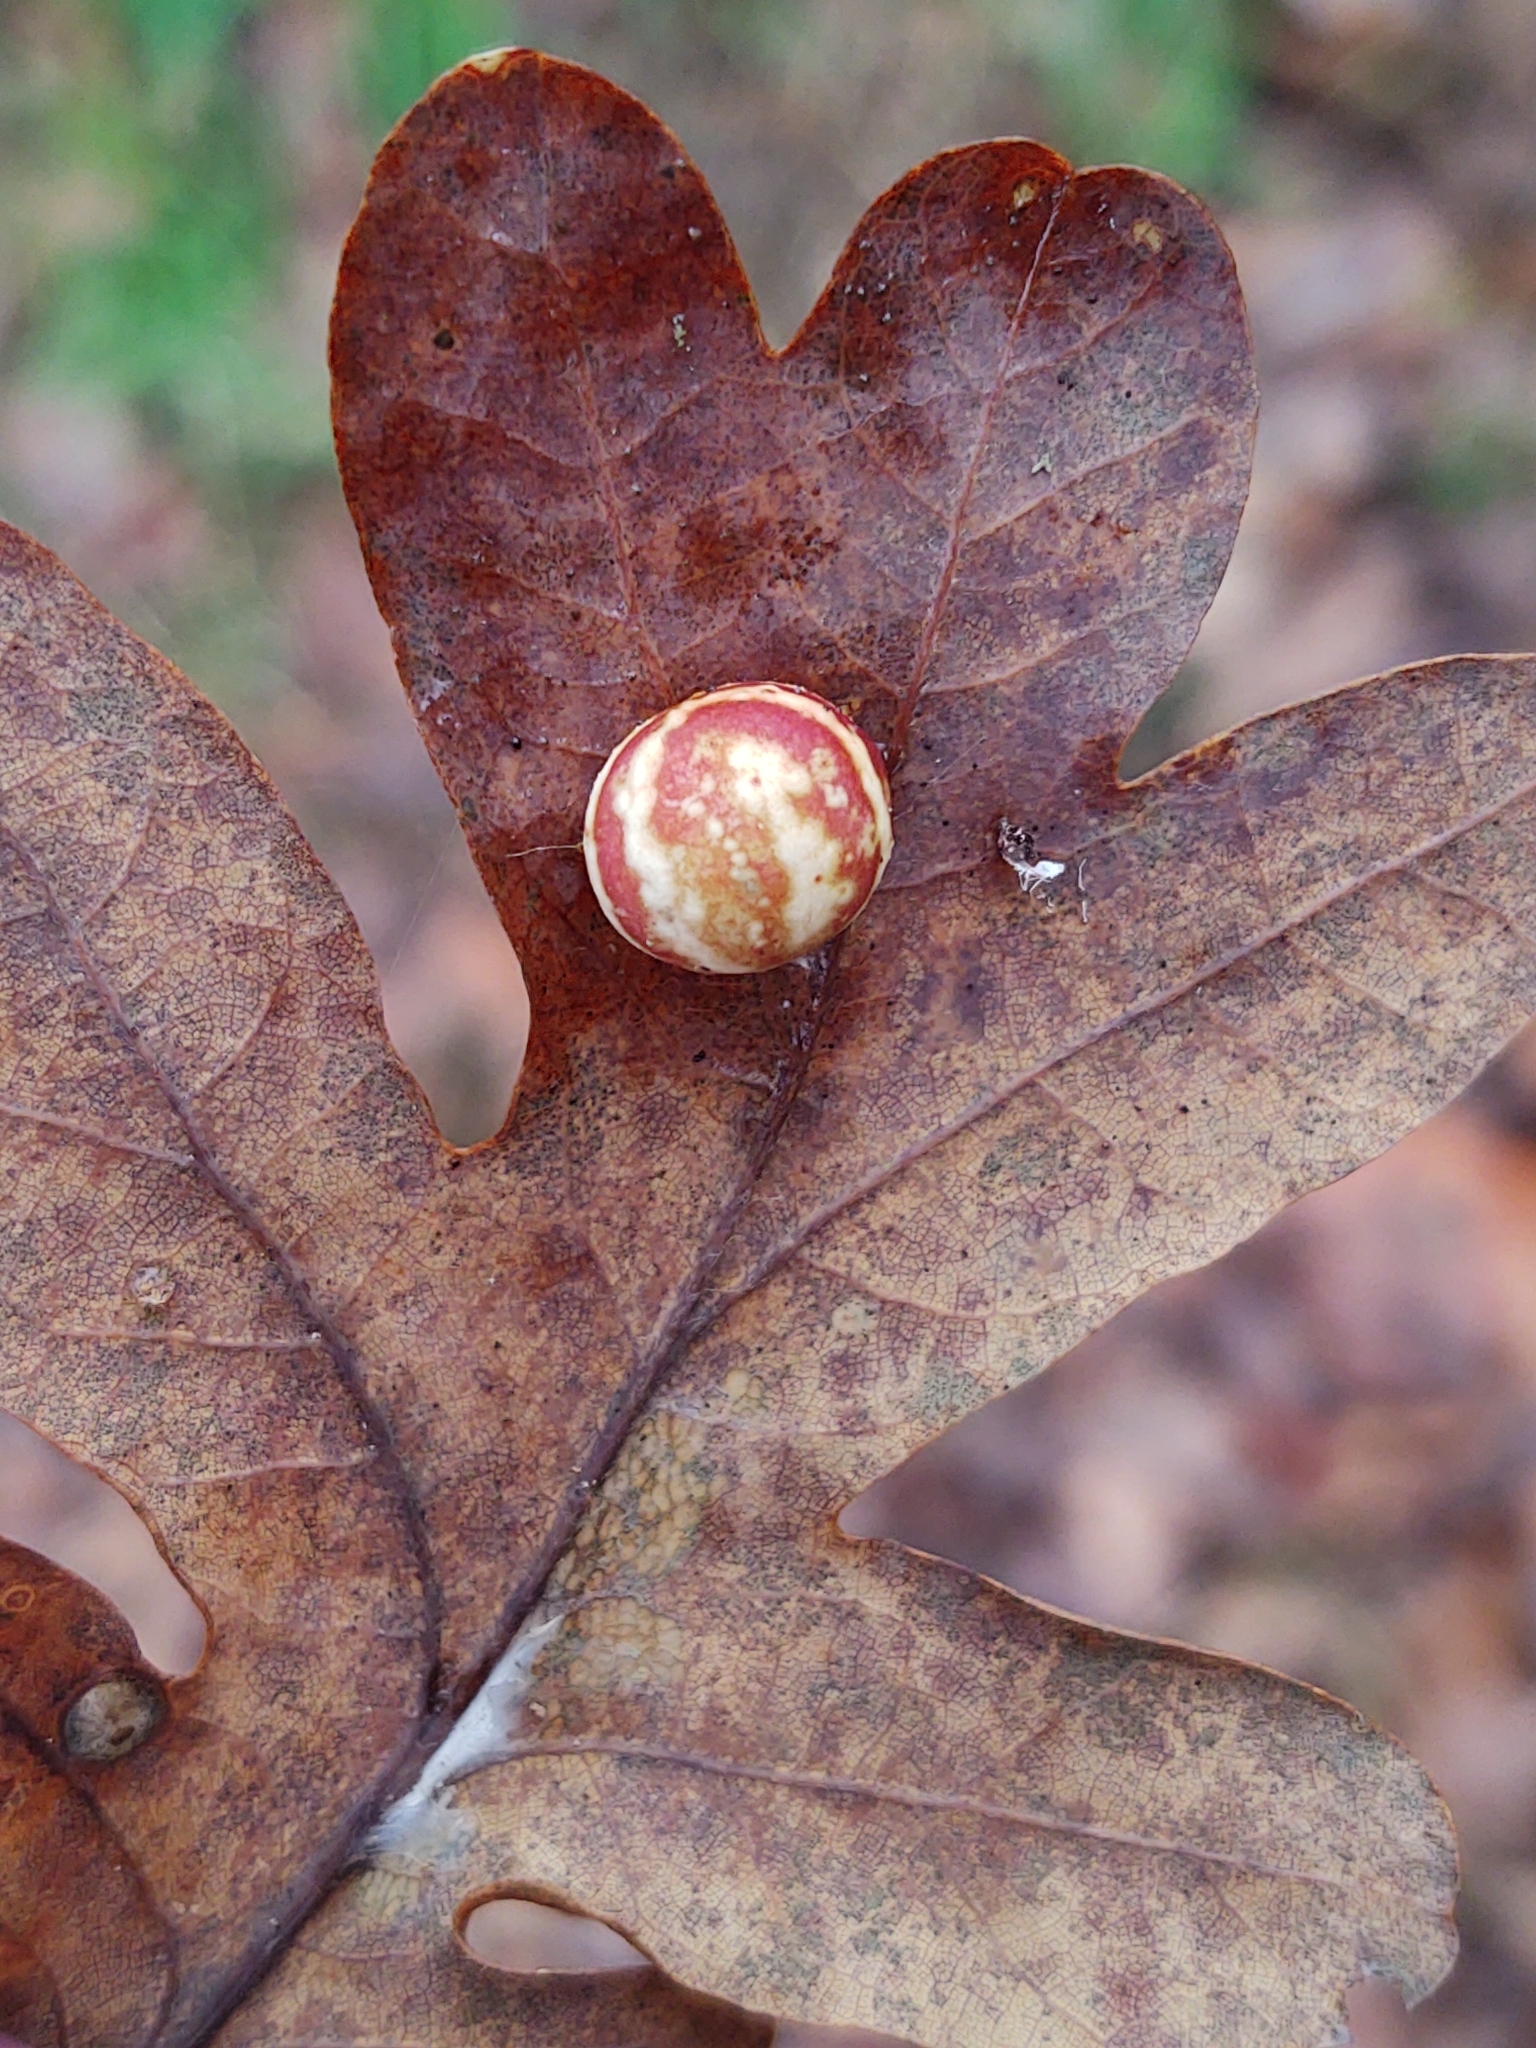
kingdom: Animalia
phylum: Arthropoda
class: Insecta
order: Hymenoptera
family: Cynipidae
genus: Cynips
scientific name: Cynips longiventris
